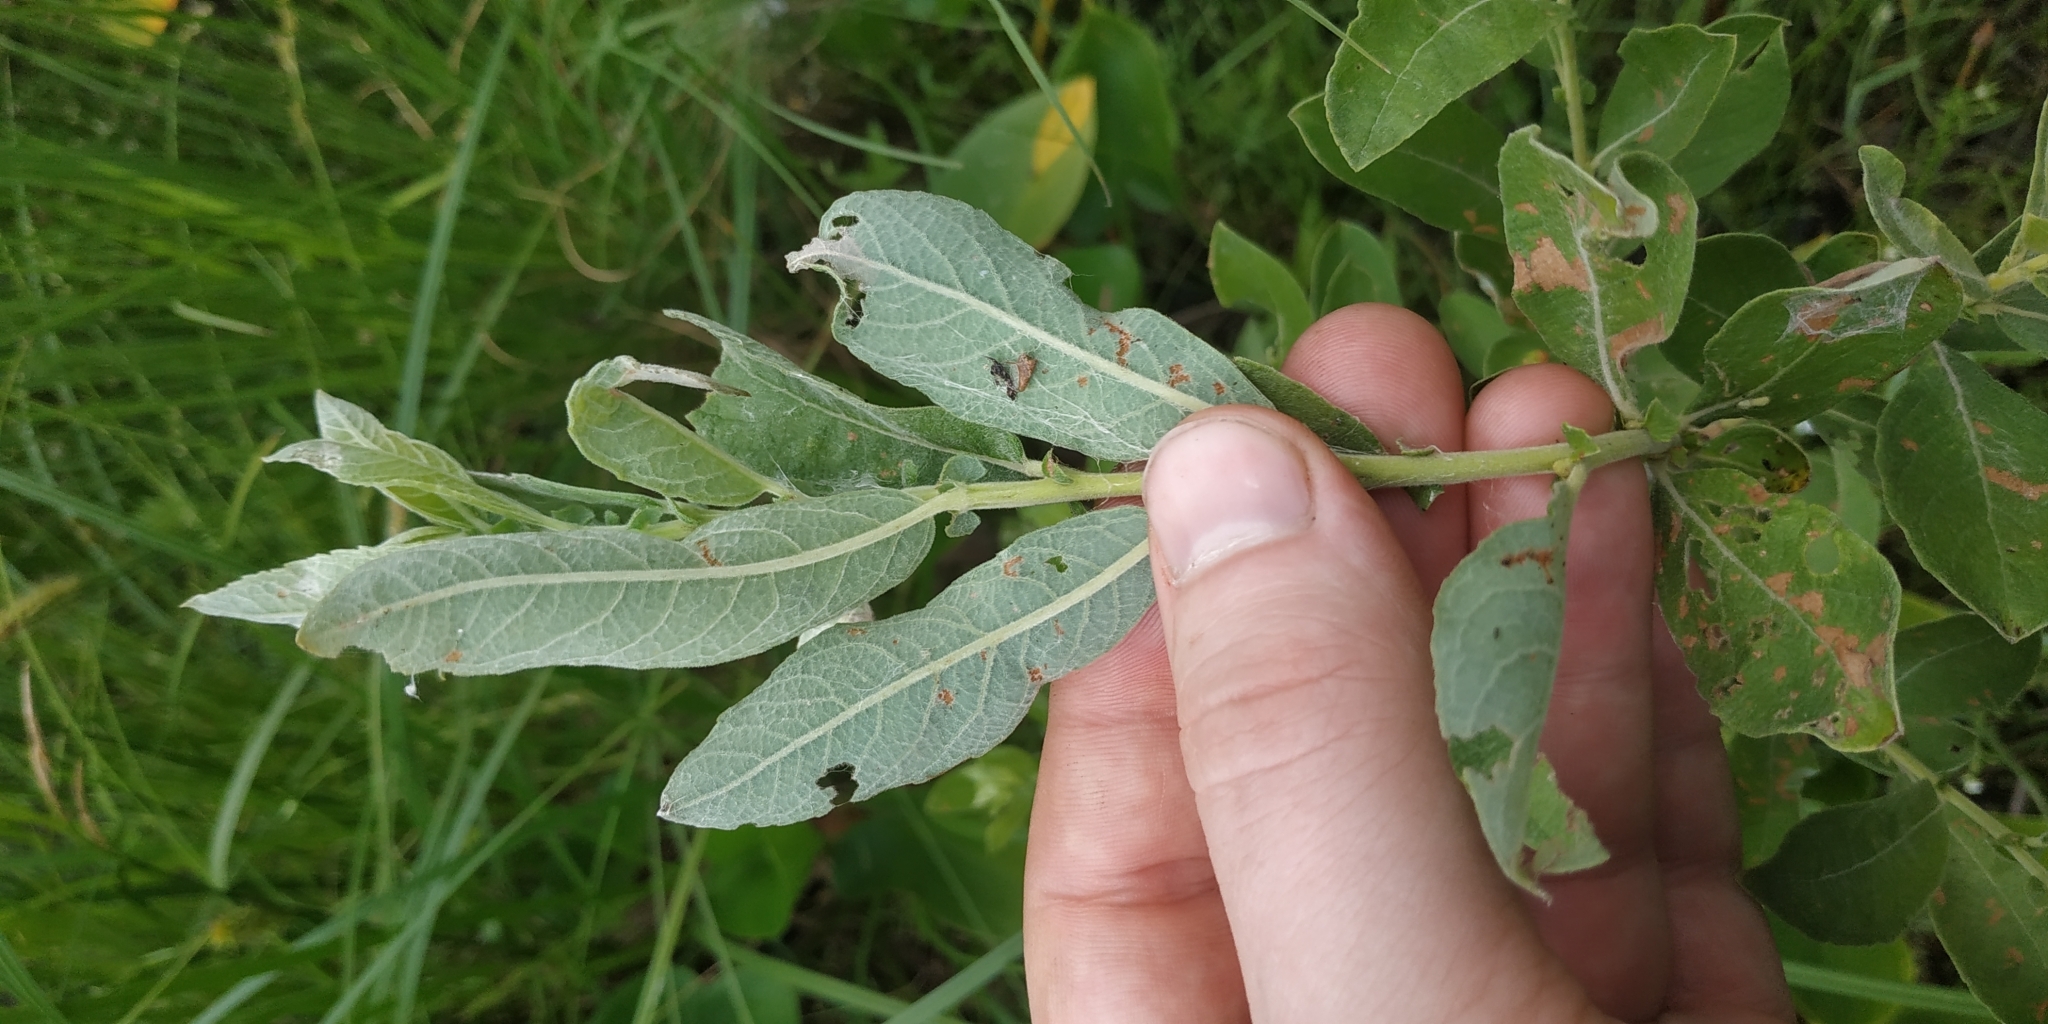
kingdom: Plantae
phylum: Tracheophyta
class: Magnoliopsida
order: Malpighiales
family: Salicaceae
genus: Salix
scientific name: Salix cinerea
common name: Common sallow
